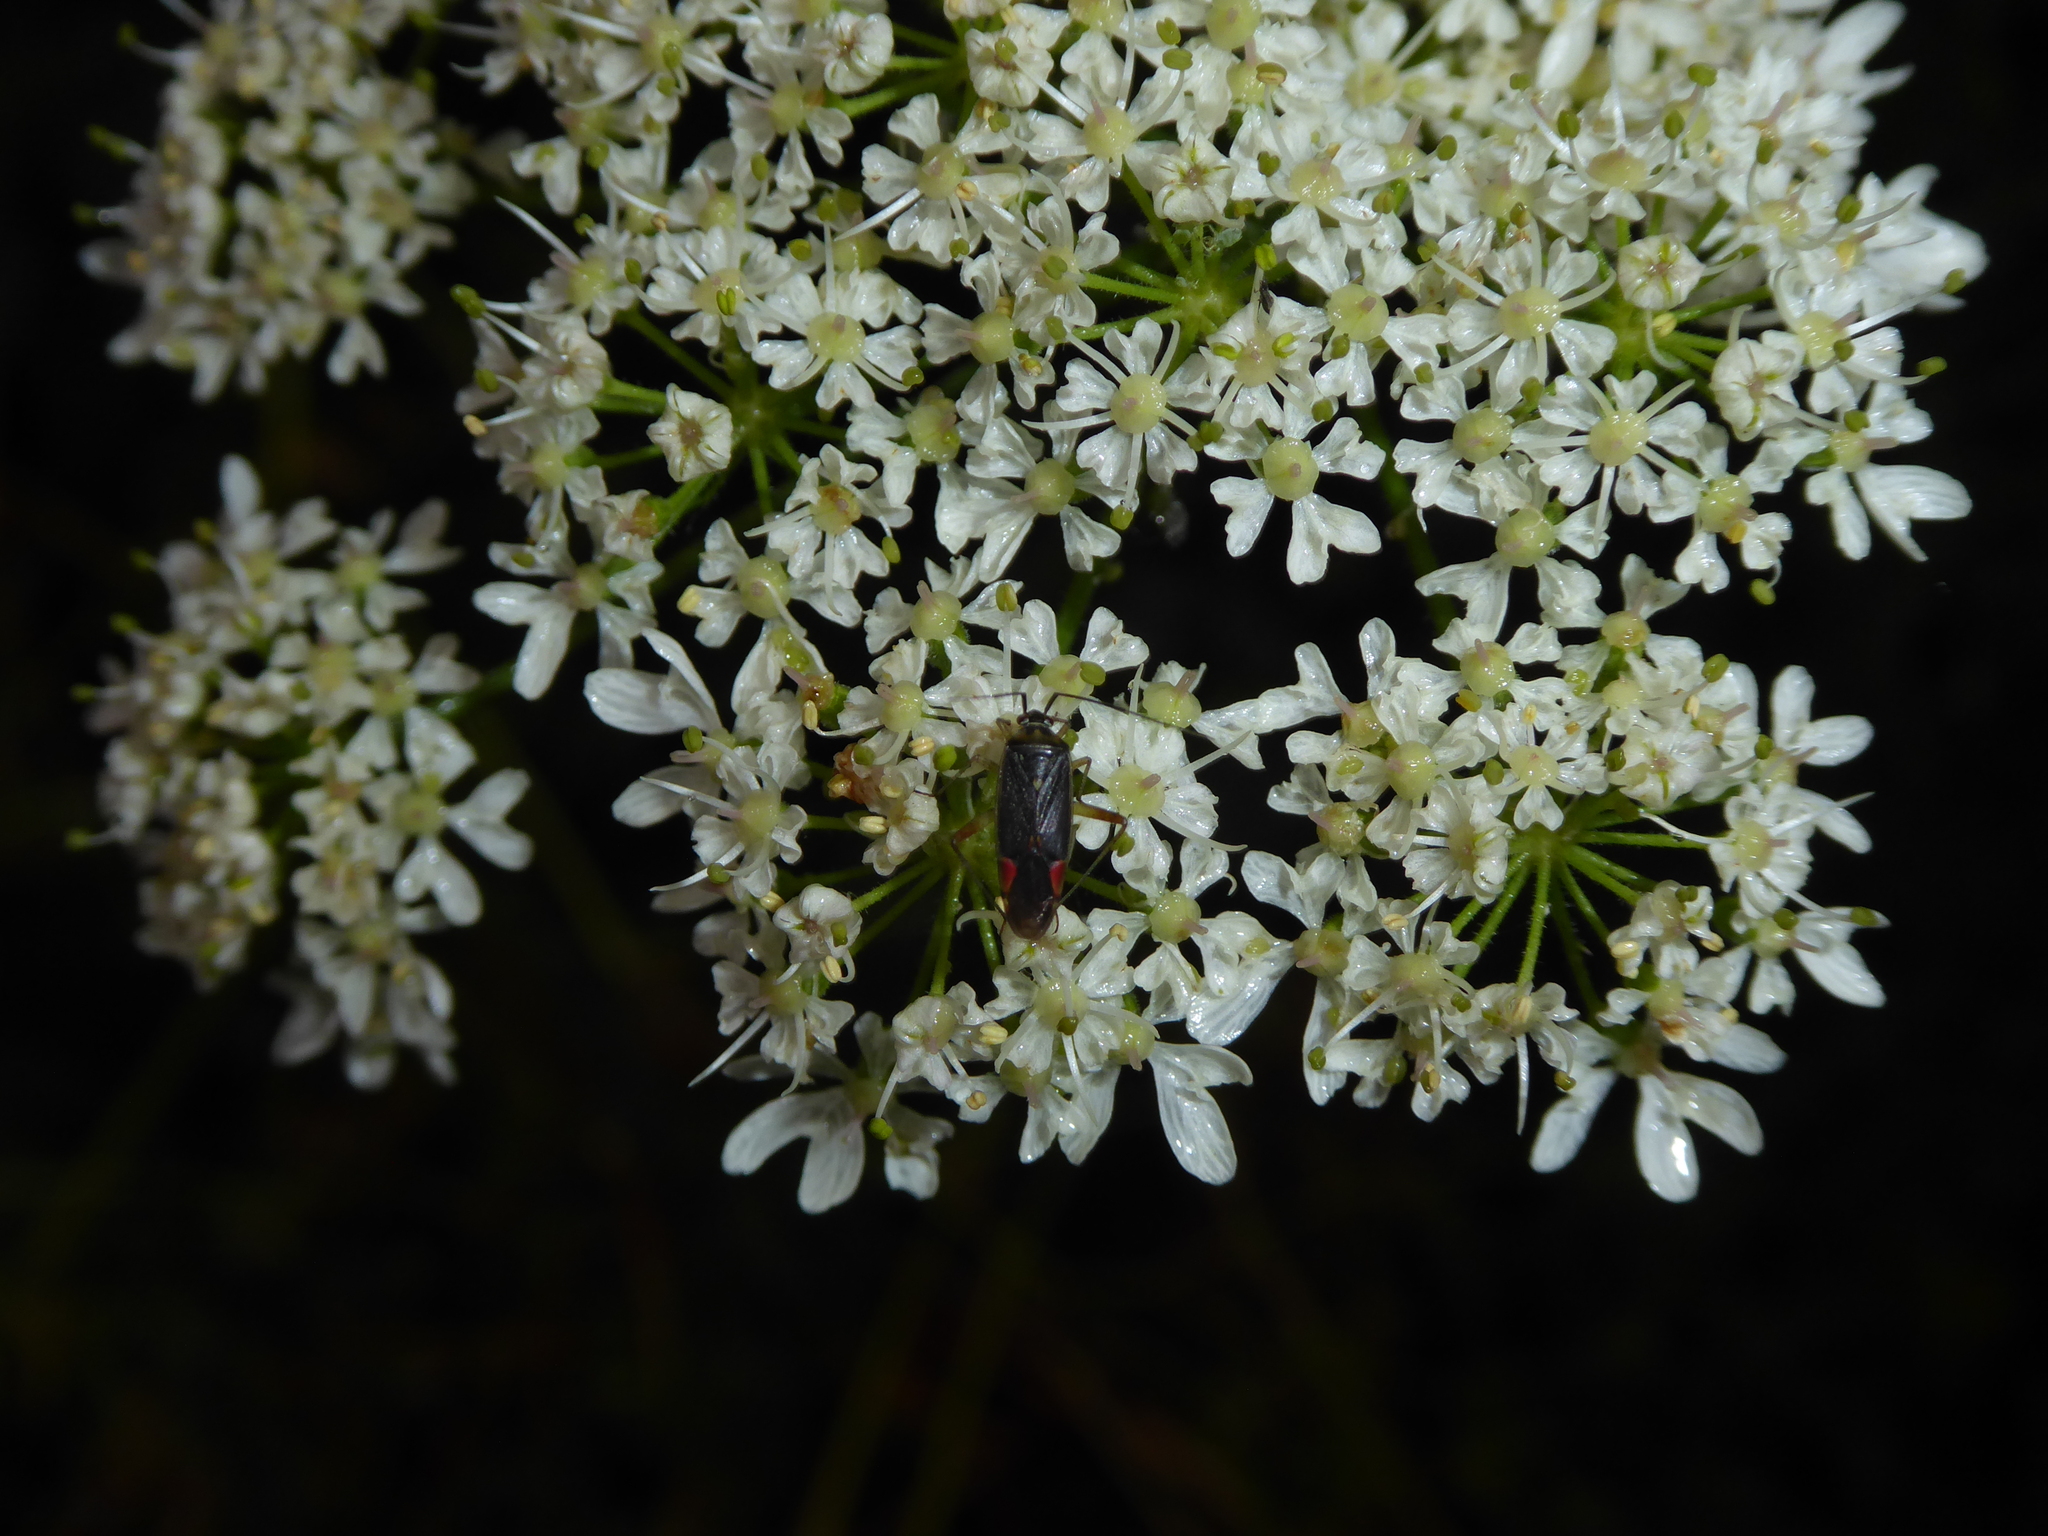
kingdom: Animalia
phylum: Arthropoda
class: Insecta
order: Hemiptera
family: Miridae
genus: Closterotomus
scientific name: Closterotomus trivialis
